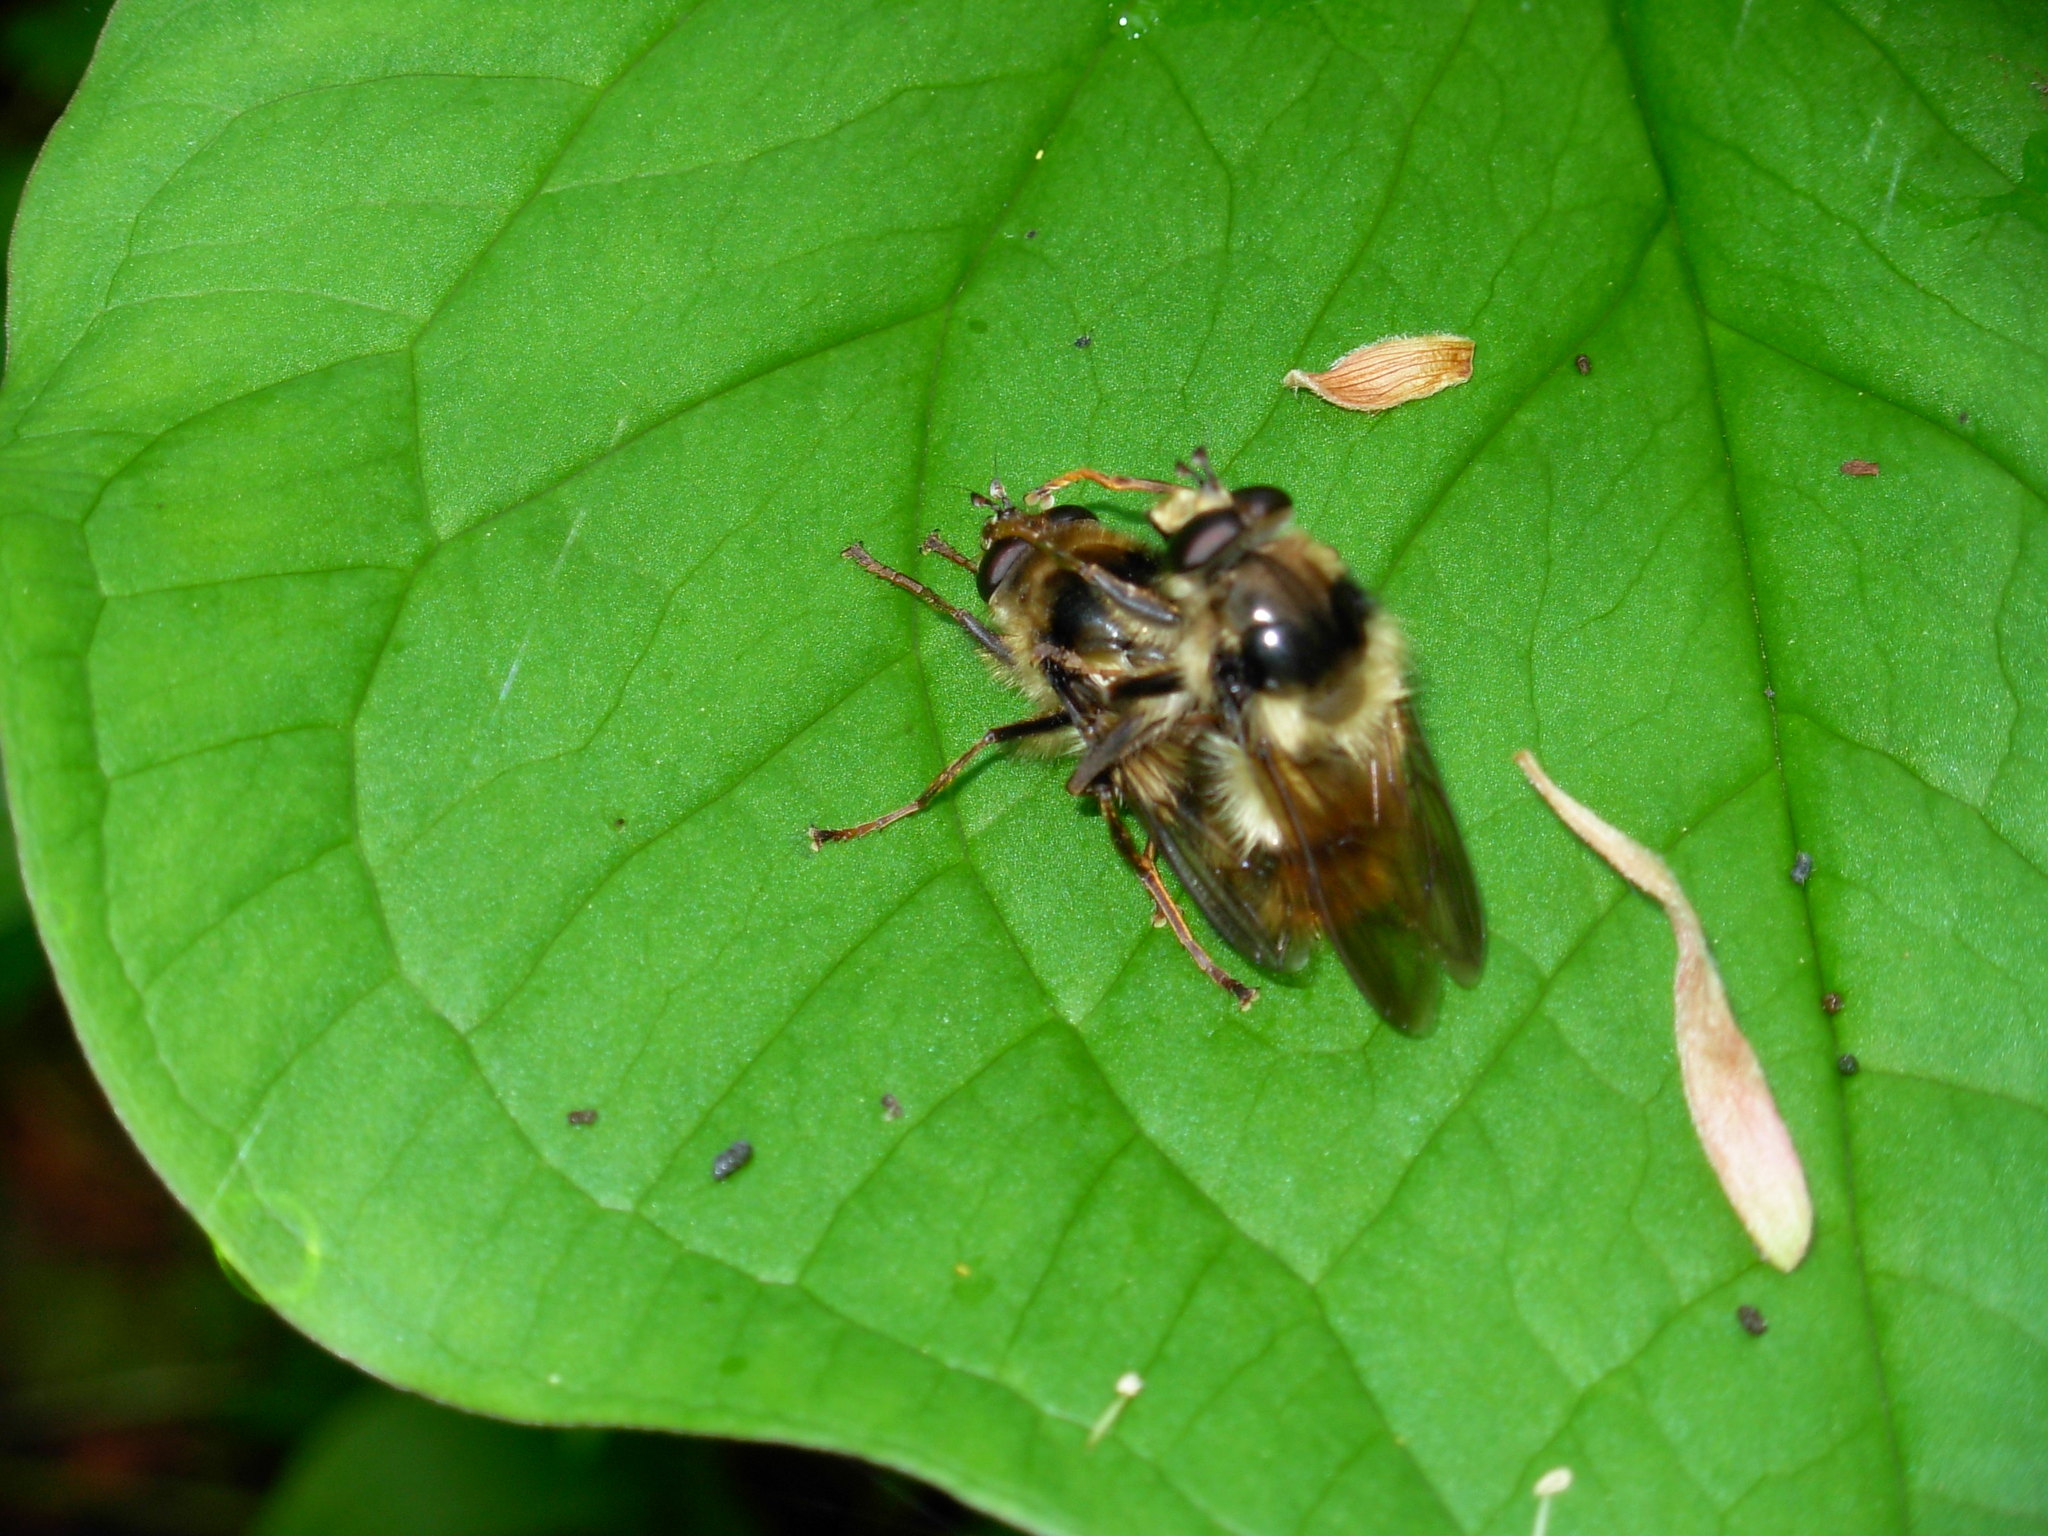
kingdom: Animalia
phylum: Arthropoda
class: Insecta
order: Diptera
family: Syrphidae
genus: Criorhina
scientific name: Criorhina bubulcus
